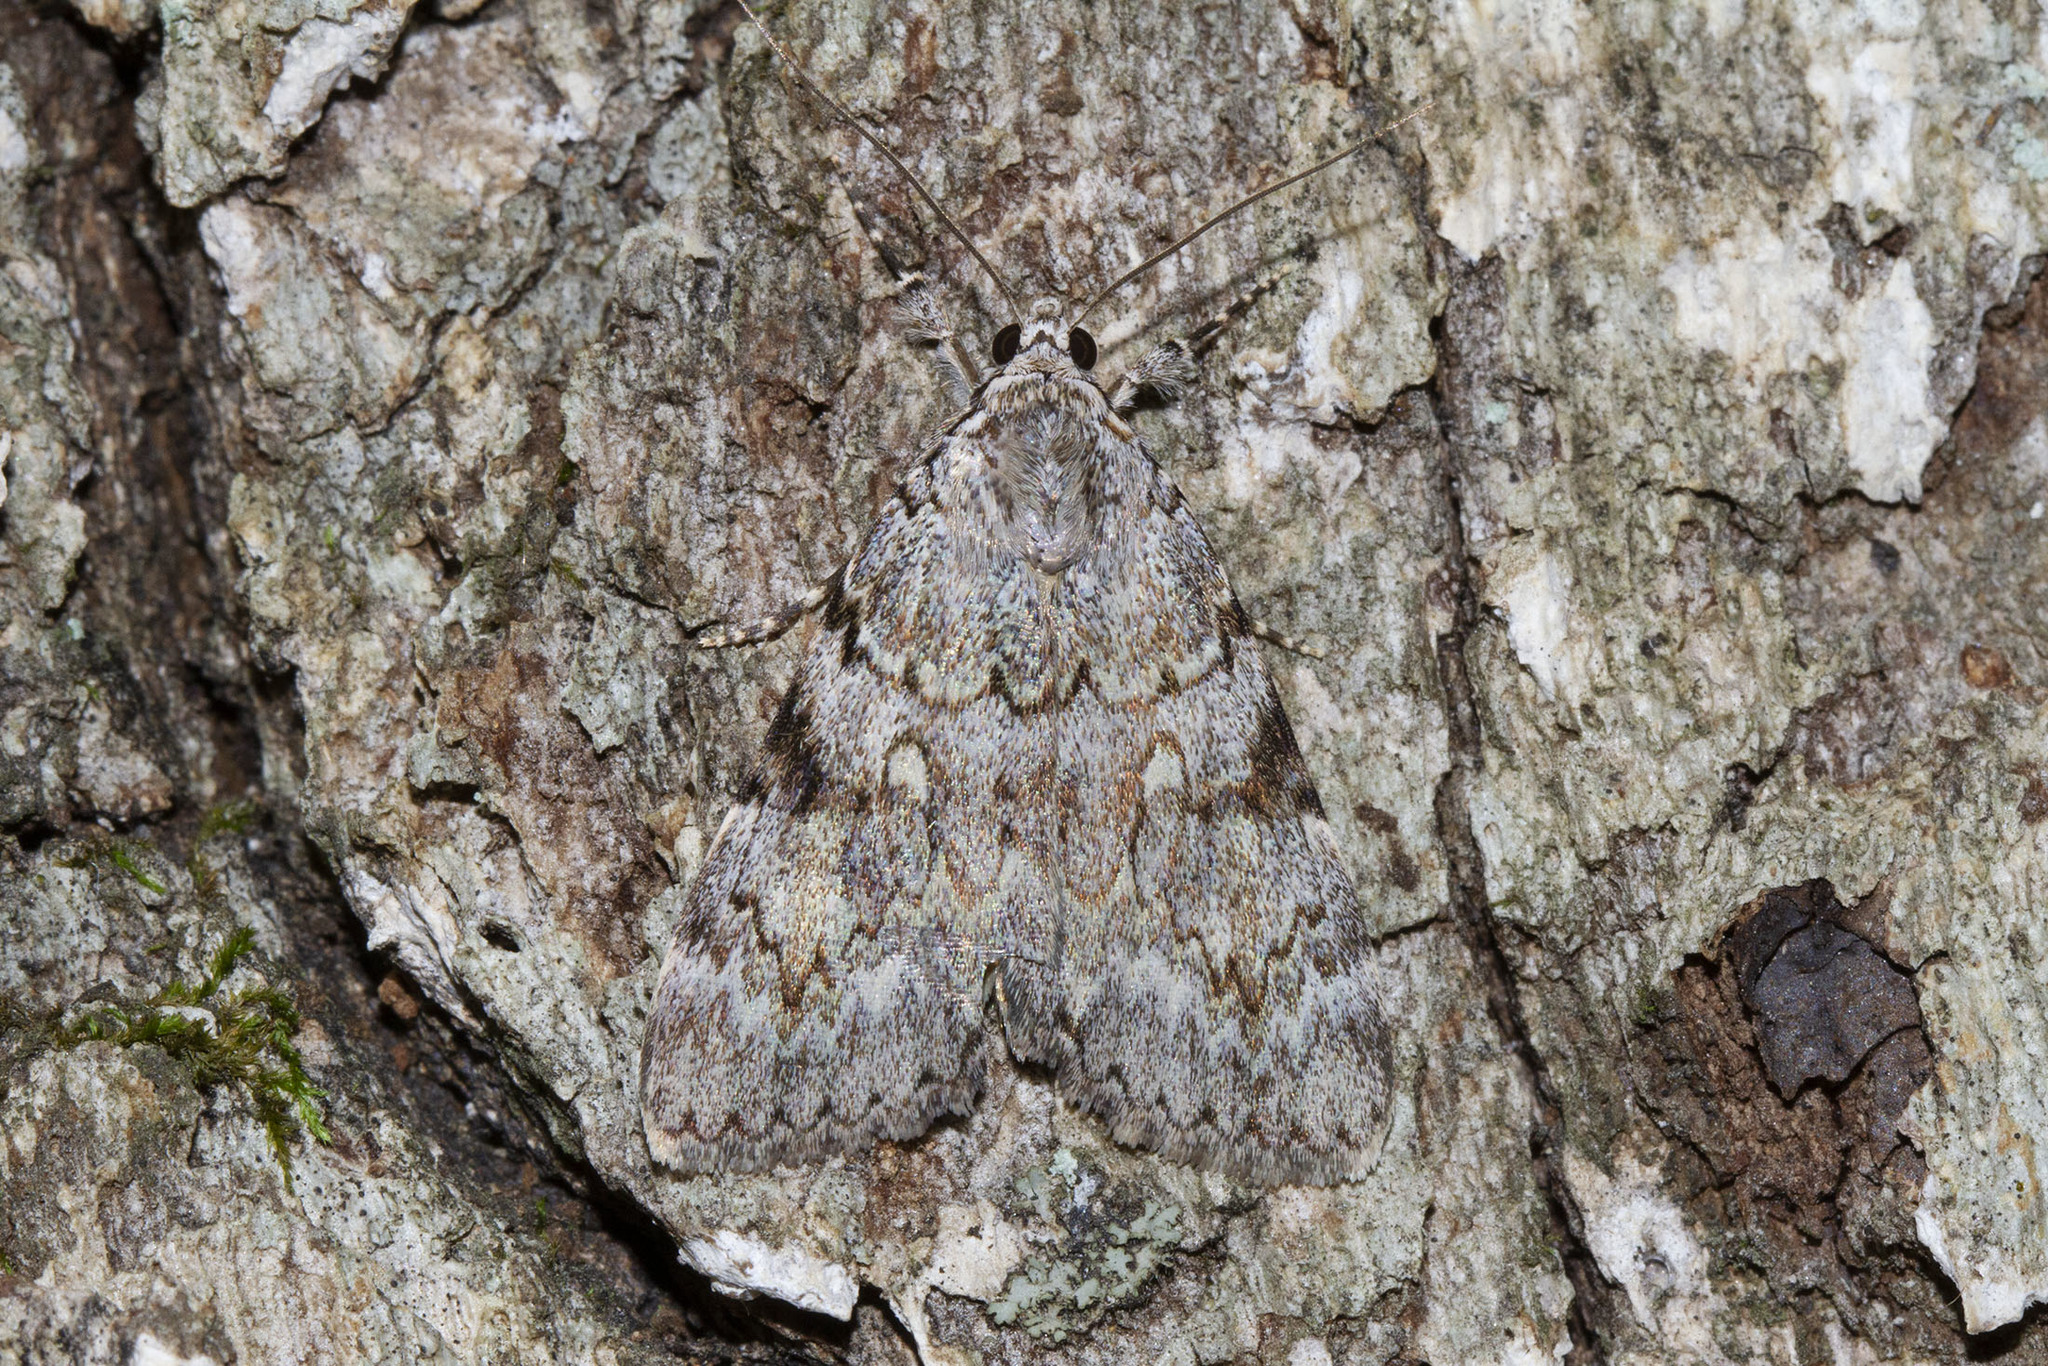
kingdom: Animalia
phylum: Arthropoda
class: Insecta
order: Lepidoptera
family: Erebidae
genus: Catocala
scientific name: Catocala amica
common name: Girlfriend underwing
